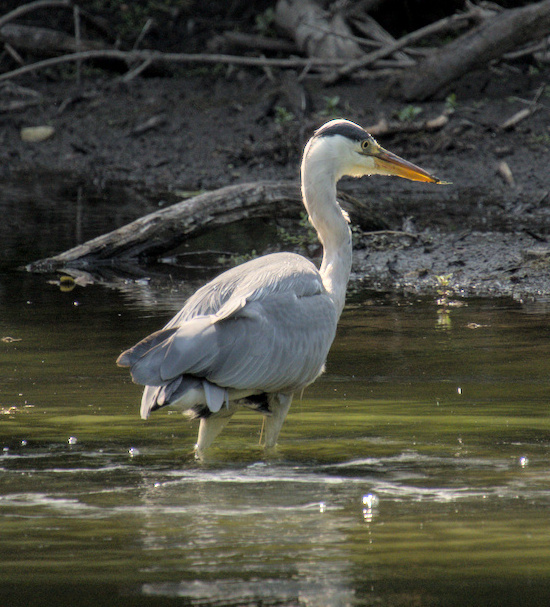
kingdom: Animalia
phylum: Chordata
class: Aves
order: Pelecaniformes
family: Ardeidae
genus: Ardea
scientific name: Ardea cinerea
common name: Grey heron
